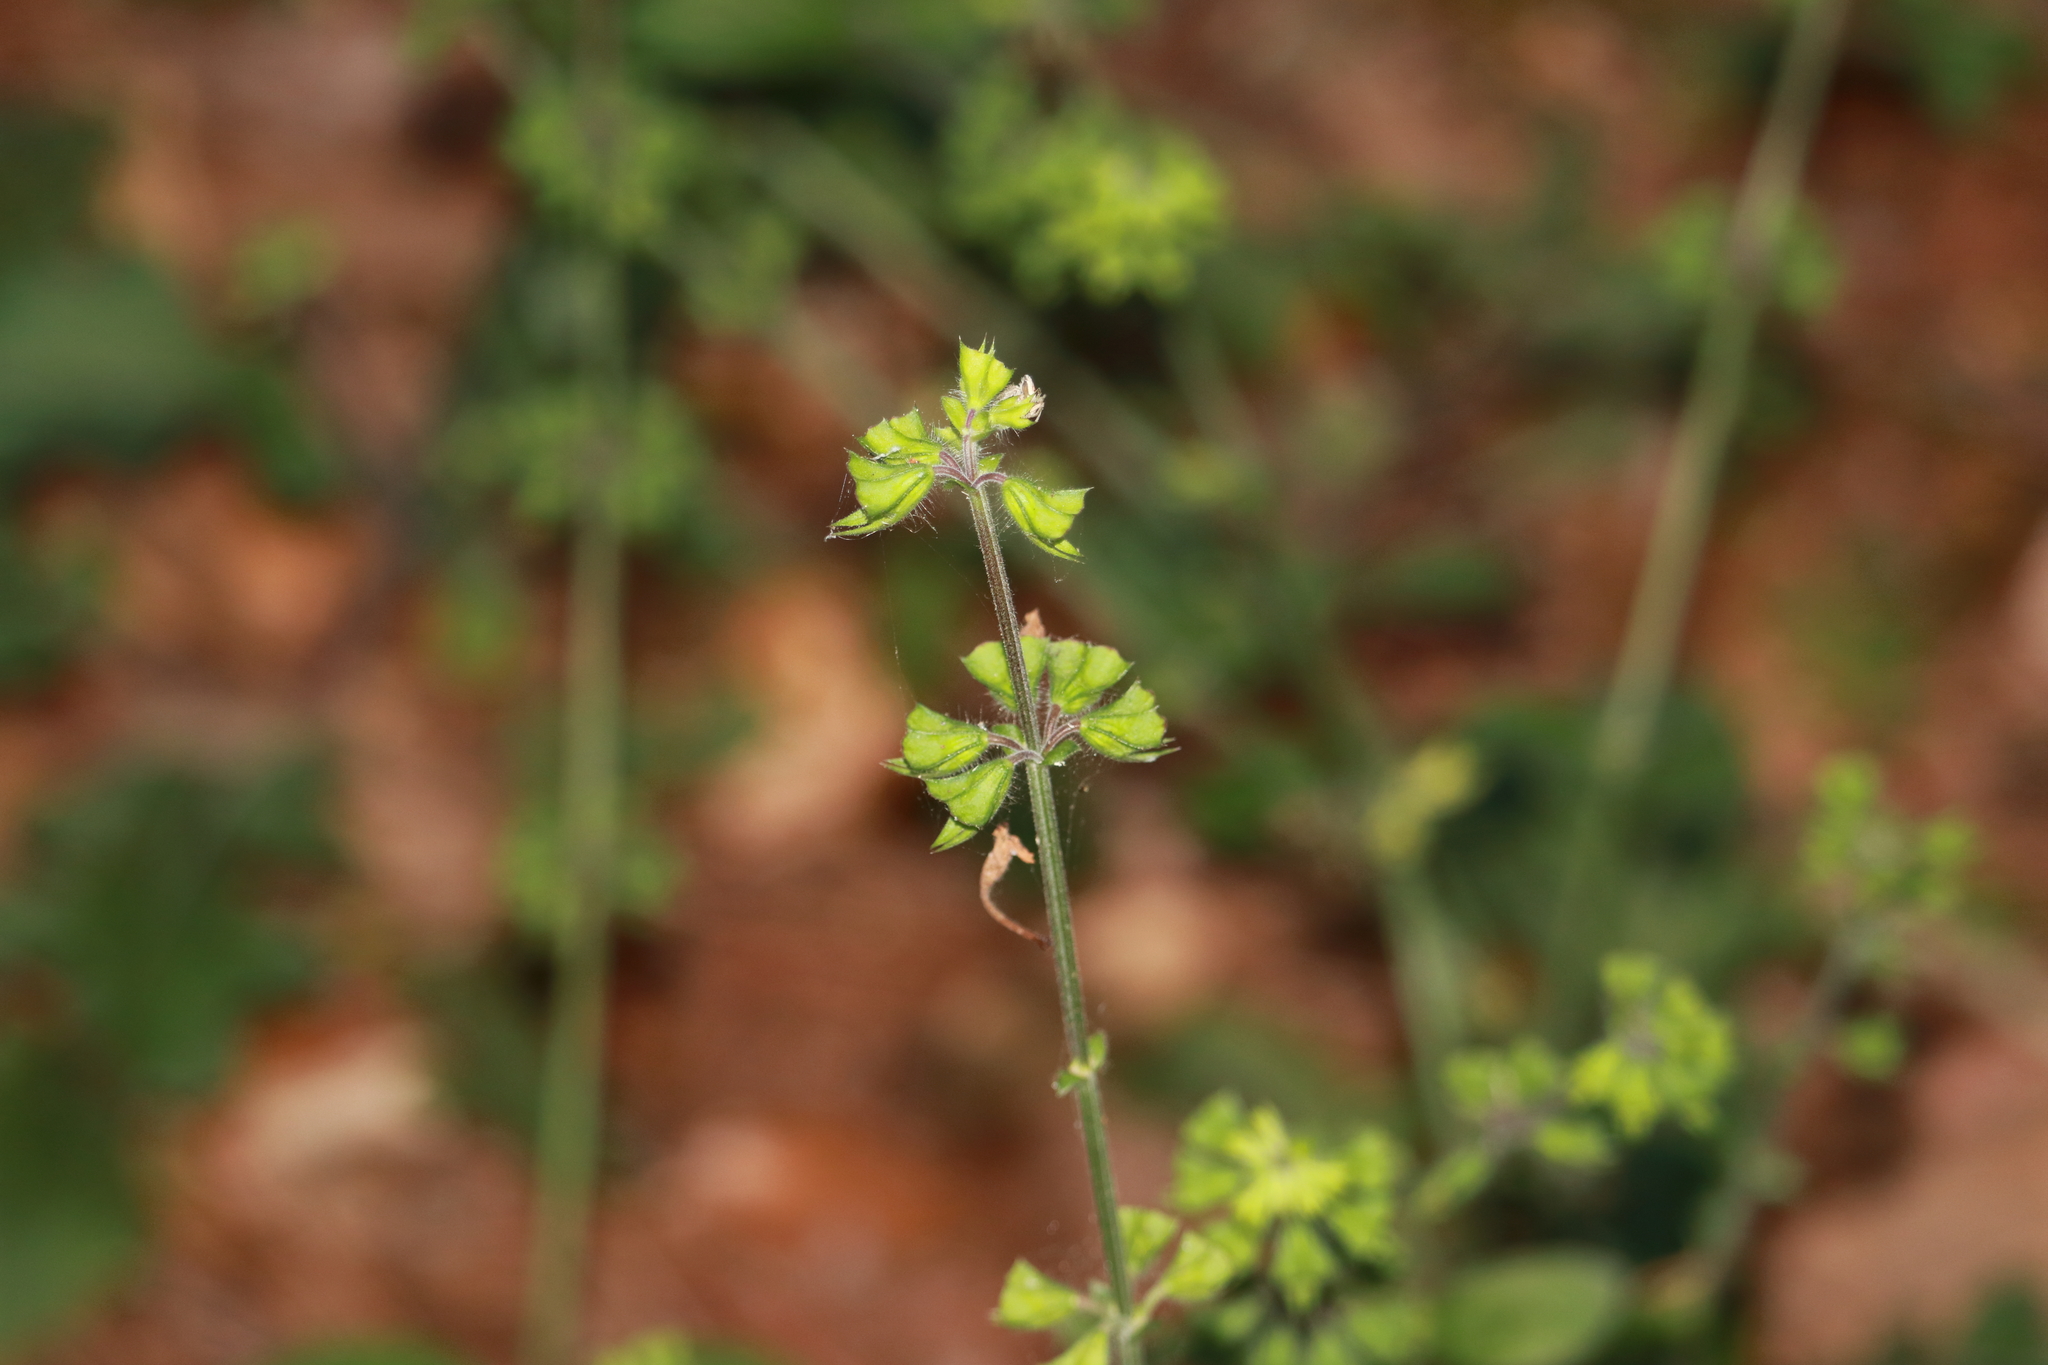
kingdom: Plantae
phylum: Tracheophyta
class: Magnoliopsida
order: Lamiales
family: Lamiaceae
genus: Salvia
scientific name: Salvia lyrata
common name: Cancerweed
